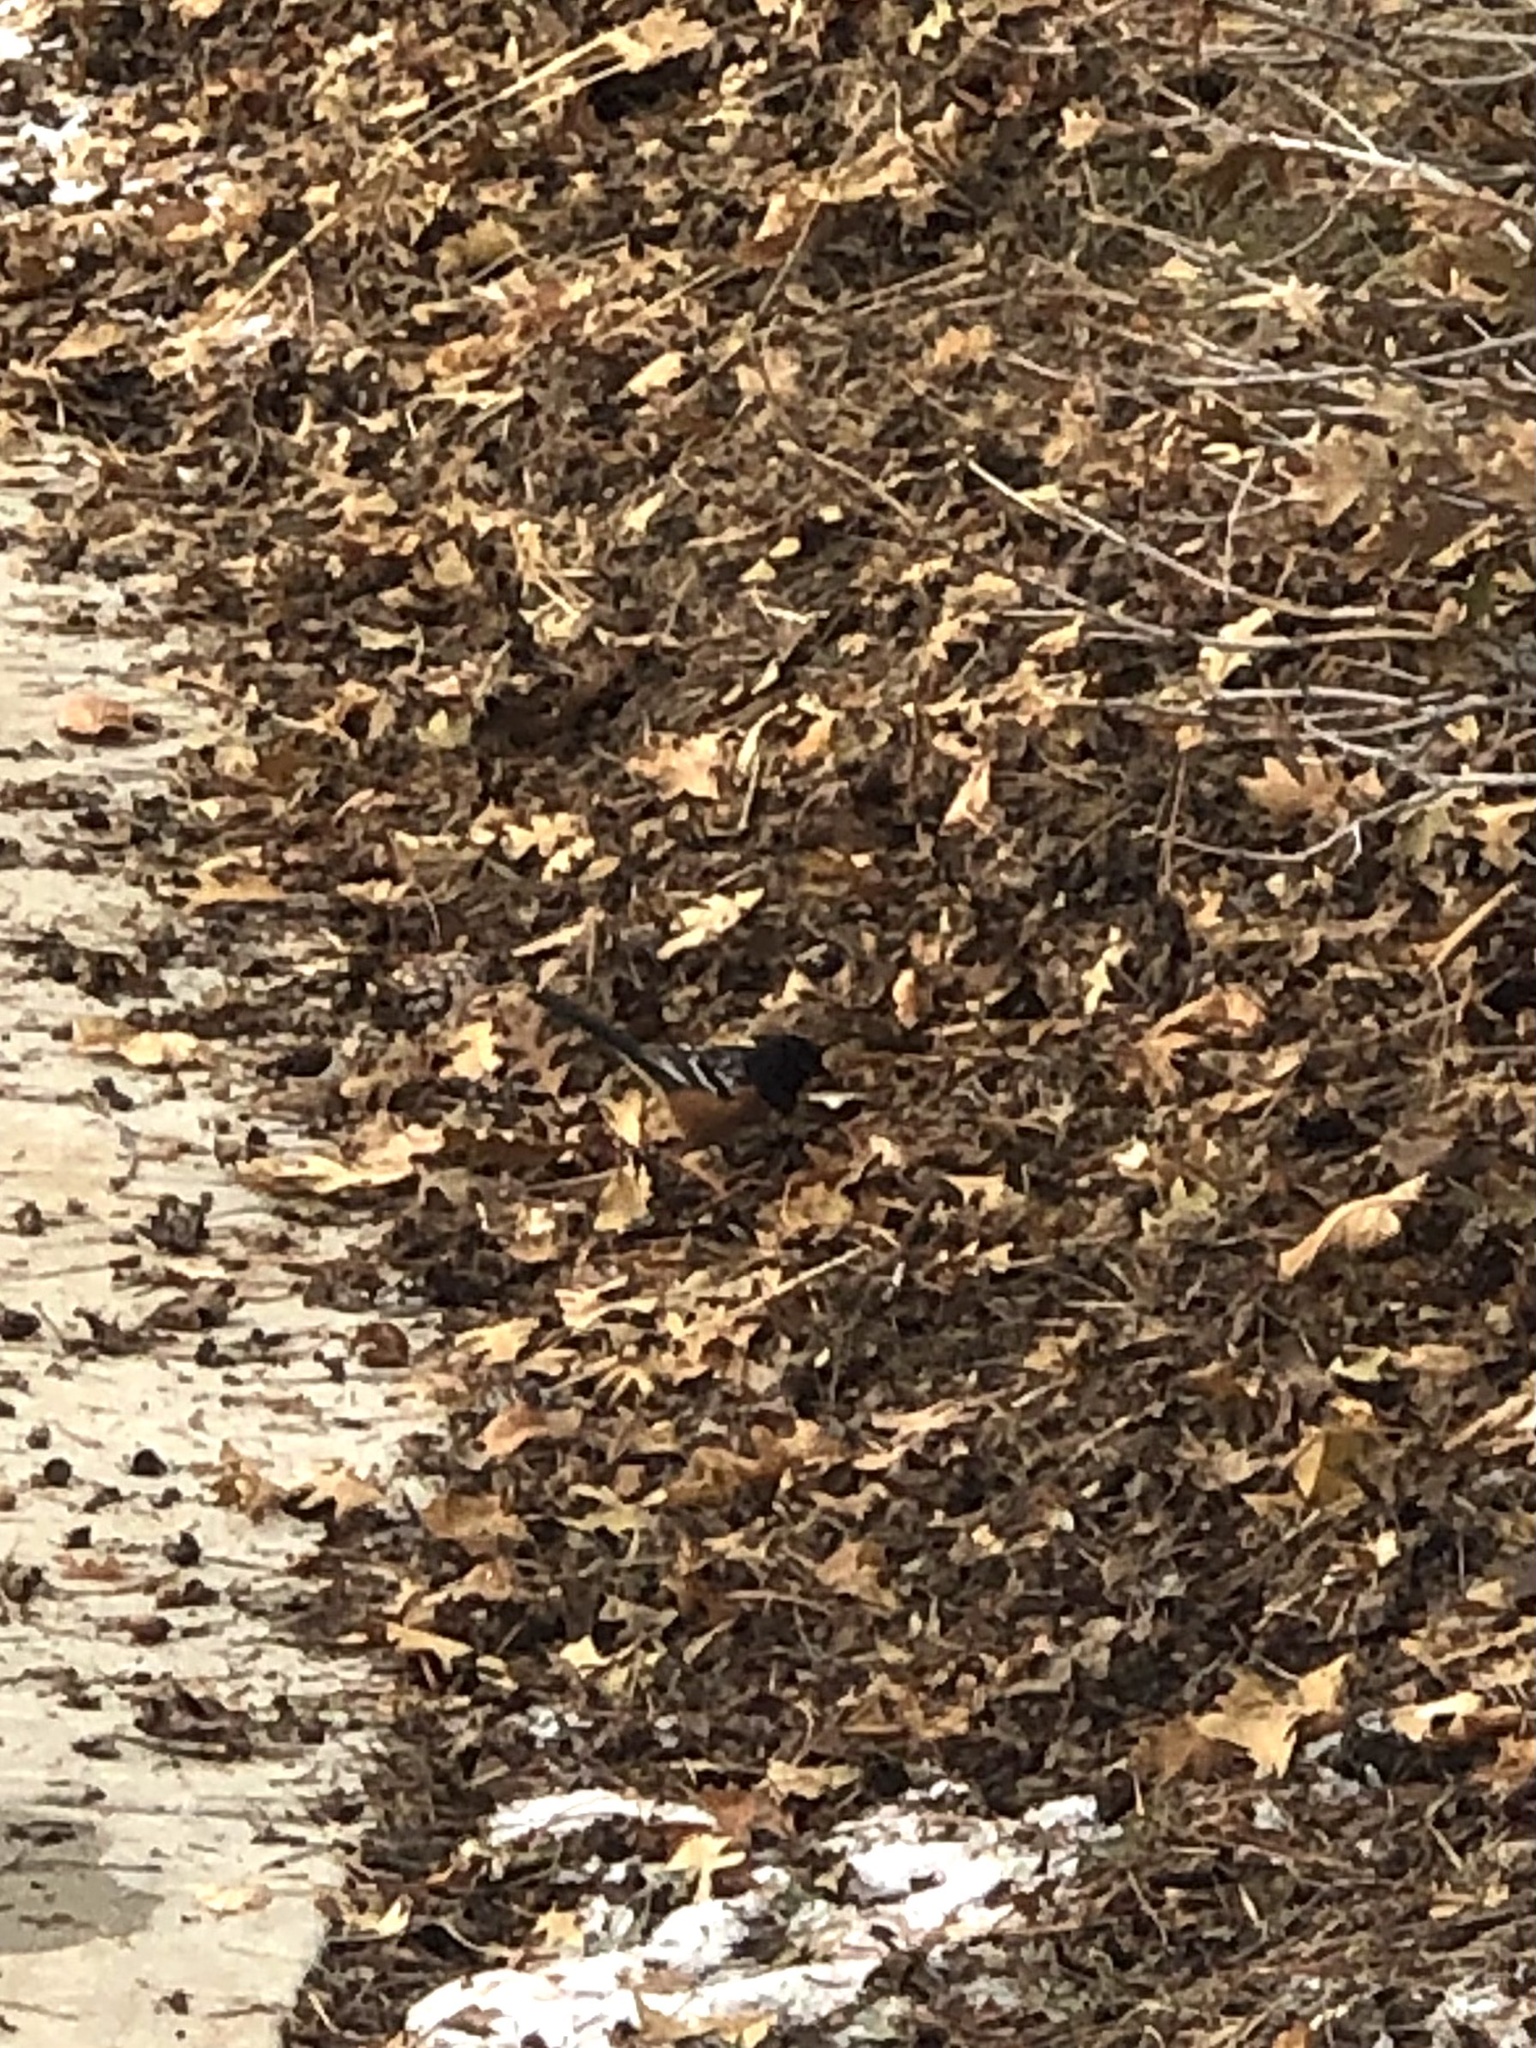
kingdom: Animalia
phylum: Chordata
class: Aves
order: Passeriformes
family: Passerellidae
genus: Pipilo
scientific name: Pipilo maculatus
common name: Spotted towhee
